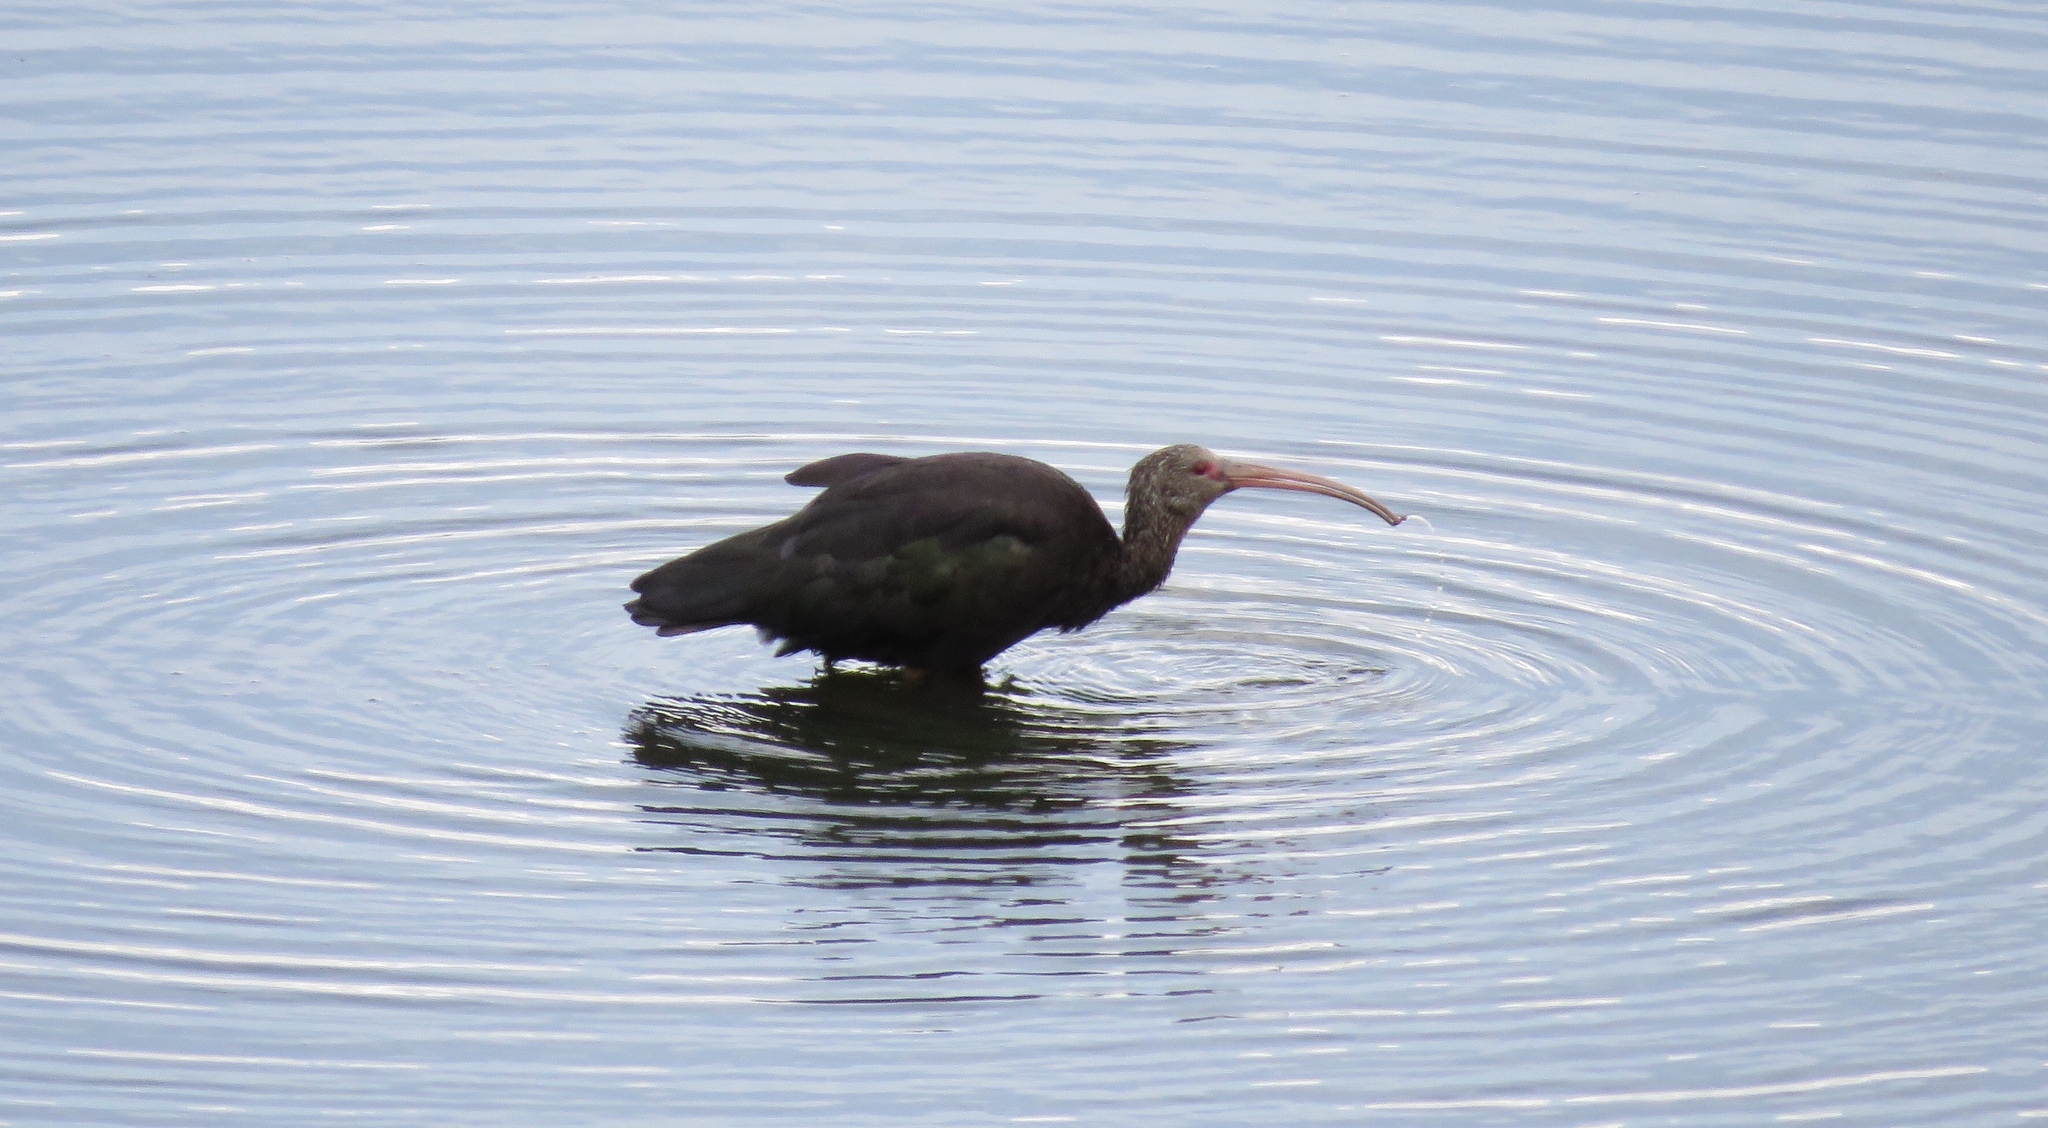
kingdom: Animalia
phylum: Chordata
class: Aves
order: Pelecaniformes
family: Threskiornithidae
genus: Plegadis
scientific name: Plegadis ridgwayi
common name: Puna ibis
